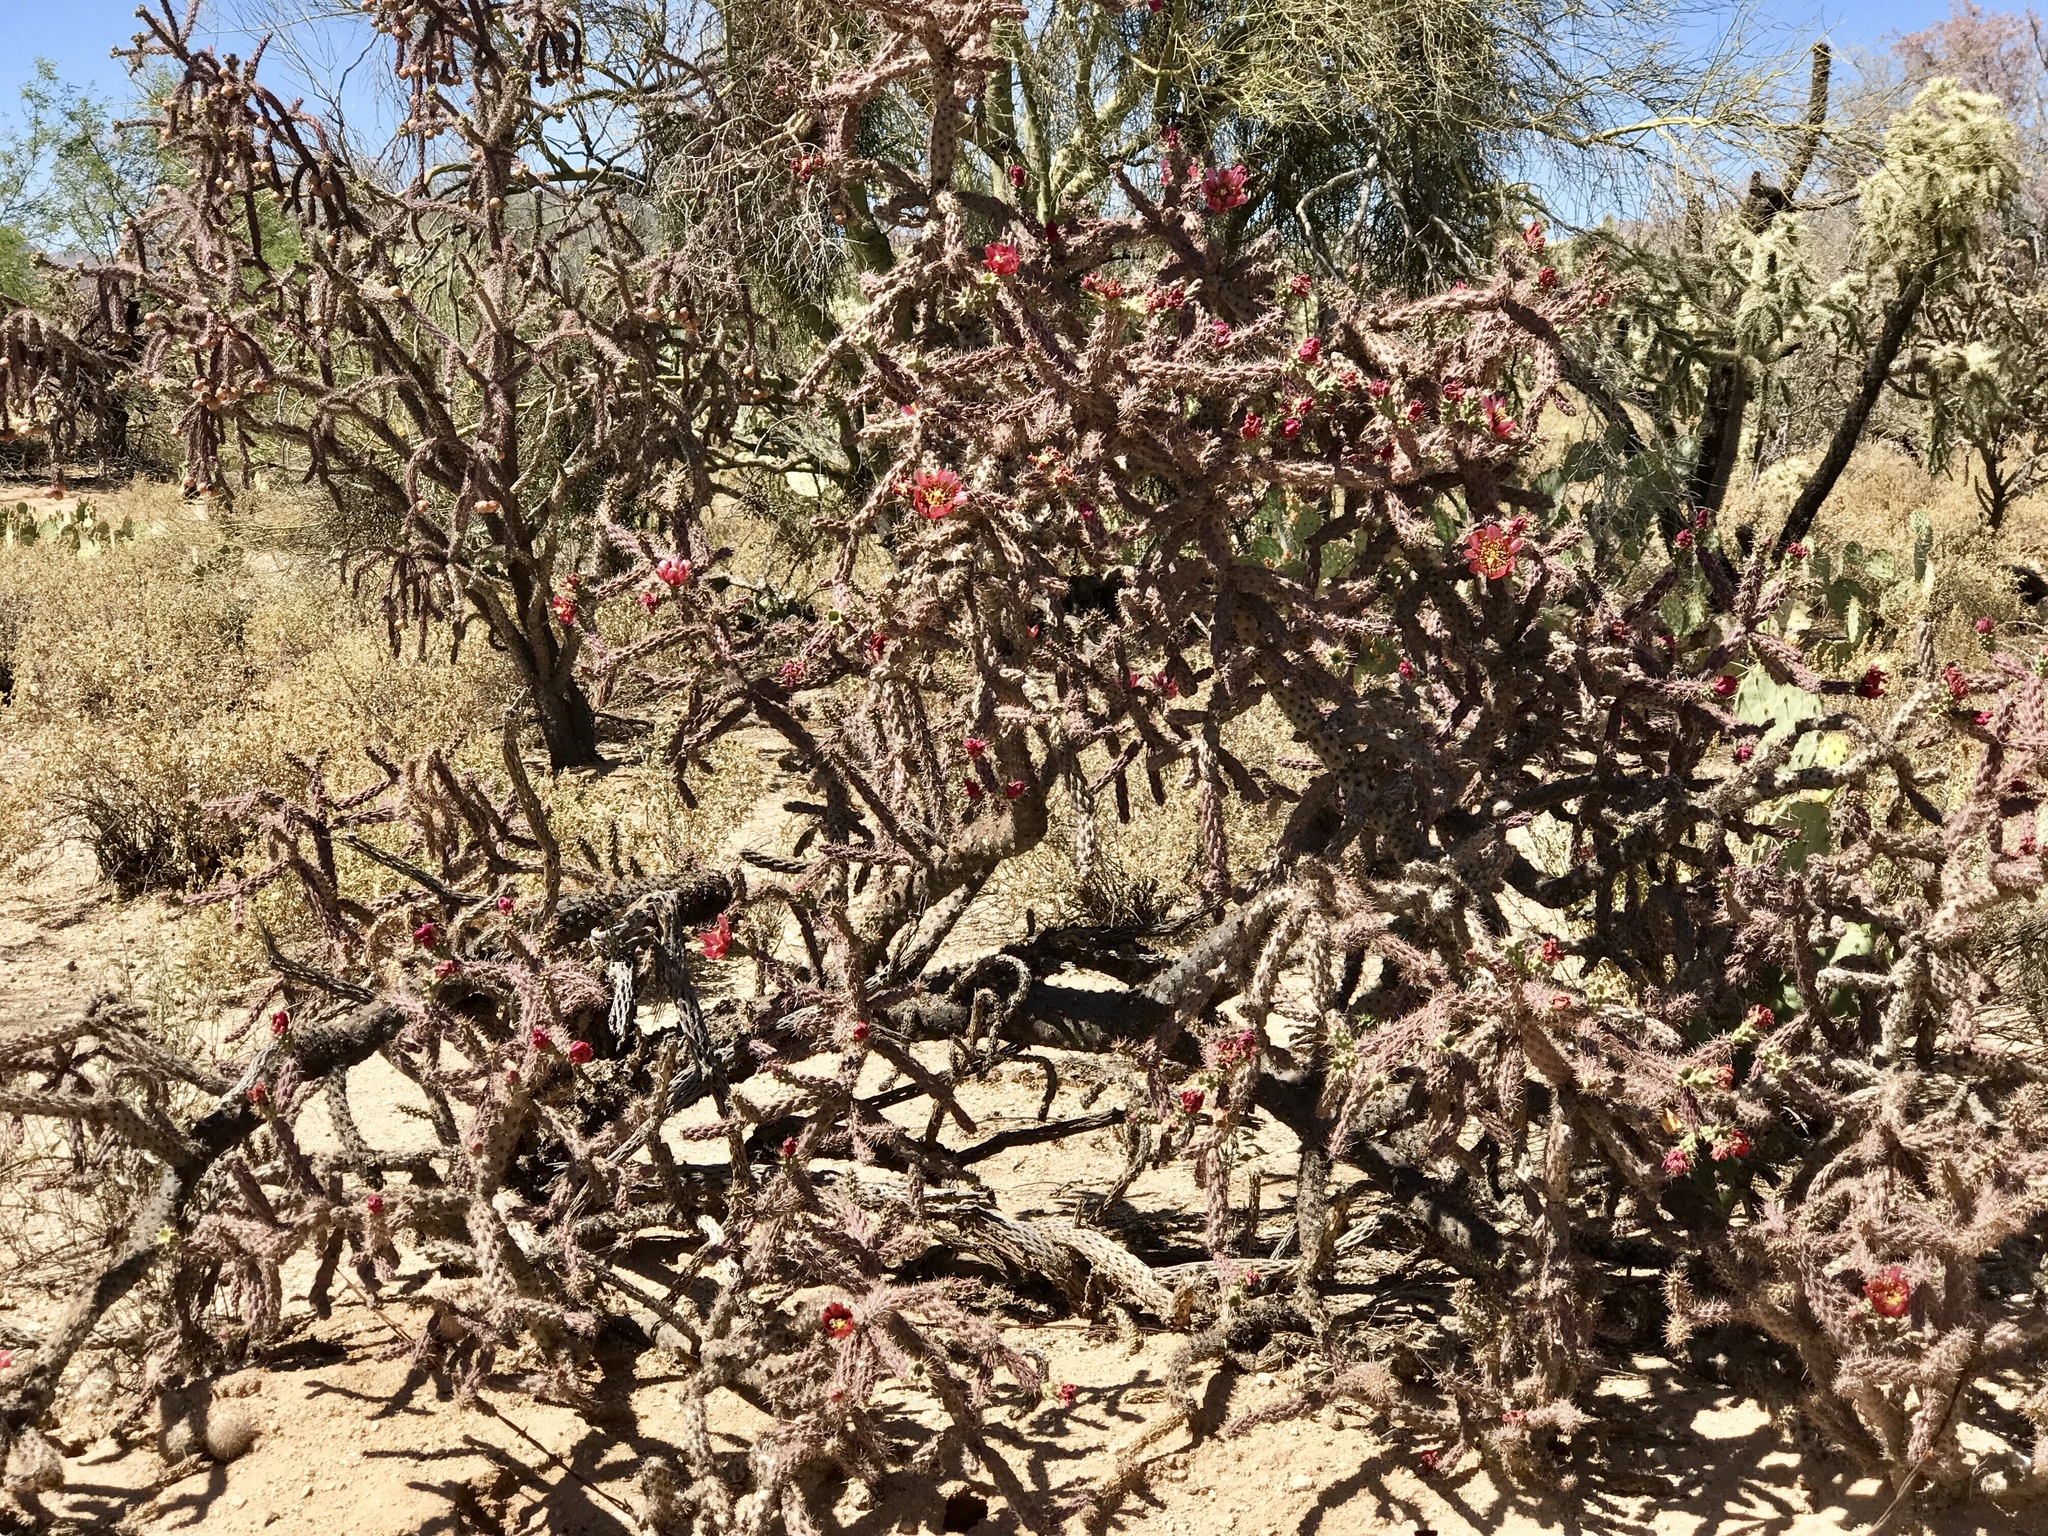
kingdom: Plantae
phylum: Tracheophyta
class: Magnoliopsida
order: Caryophyllales
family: Cactaceae
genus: Cylindropuntia
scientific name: Cylindropuntia thurberi
